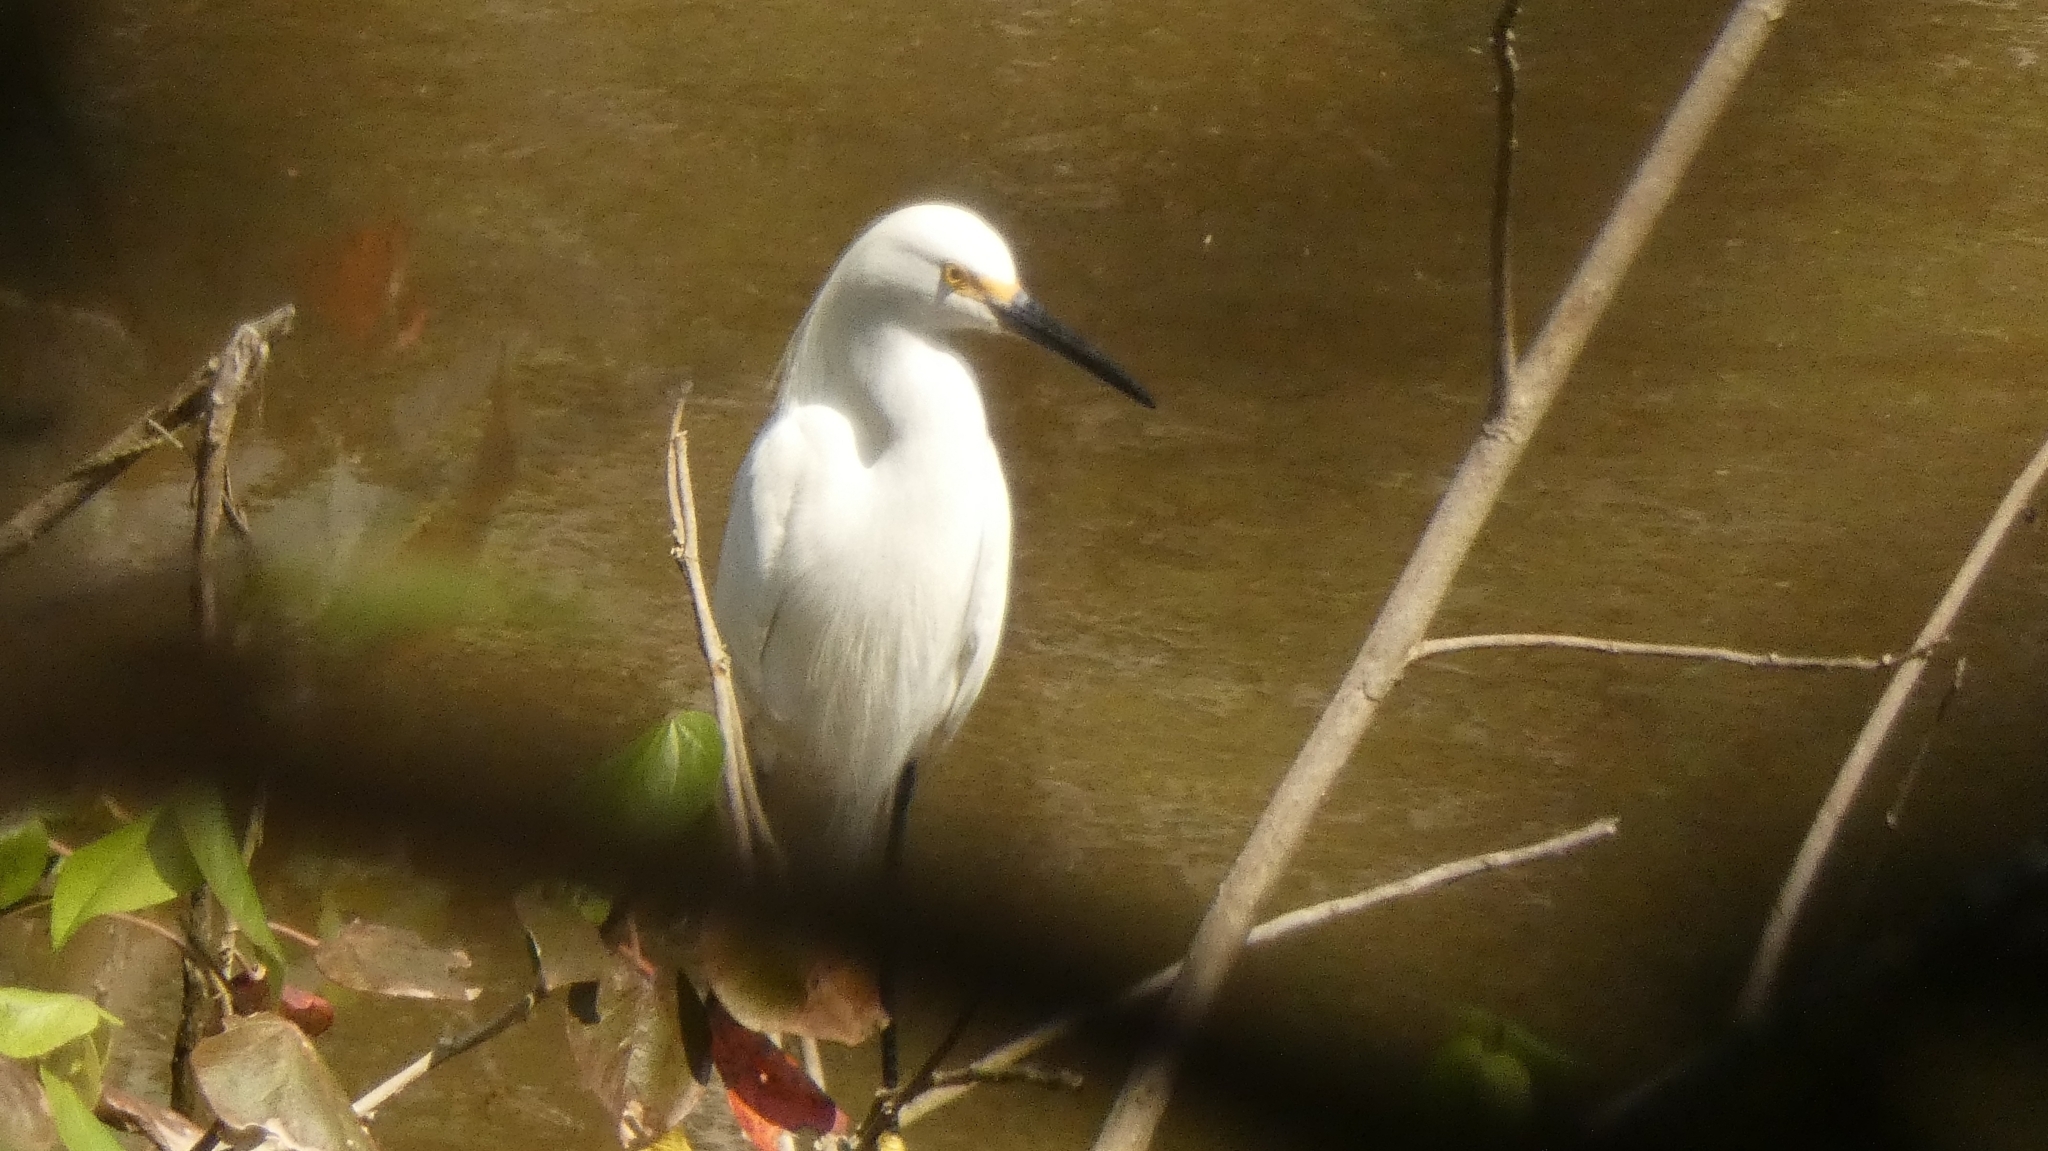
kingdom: Animalia
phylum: Chordata
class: Aves
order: Pelecaniformes
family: Ardeidae
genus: Egretta
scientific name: Egretta thula
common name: Snowy egret
